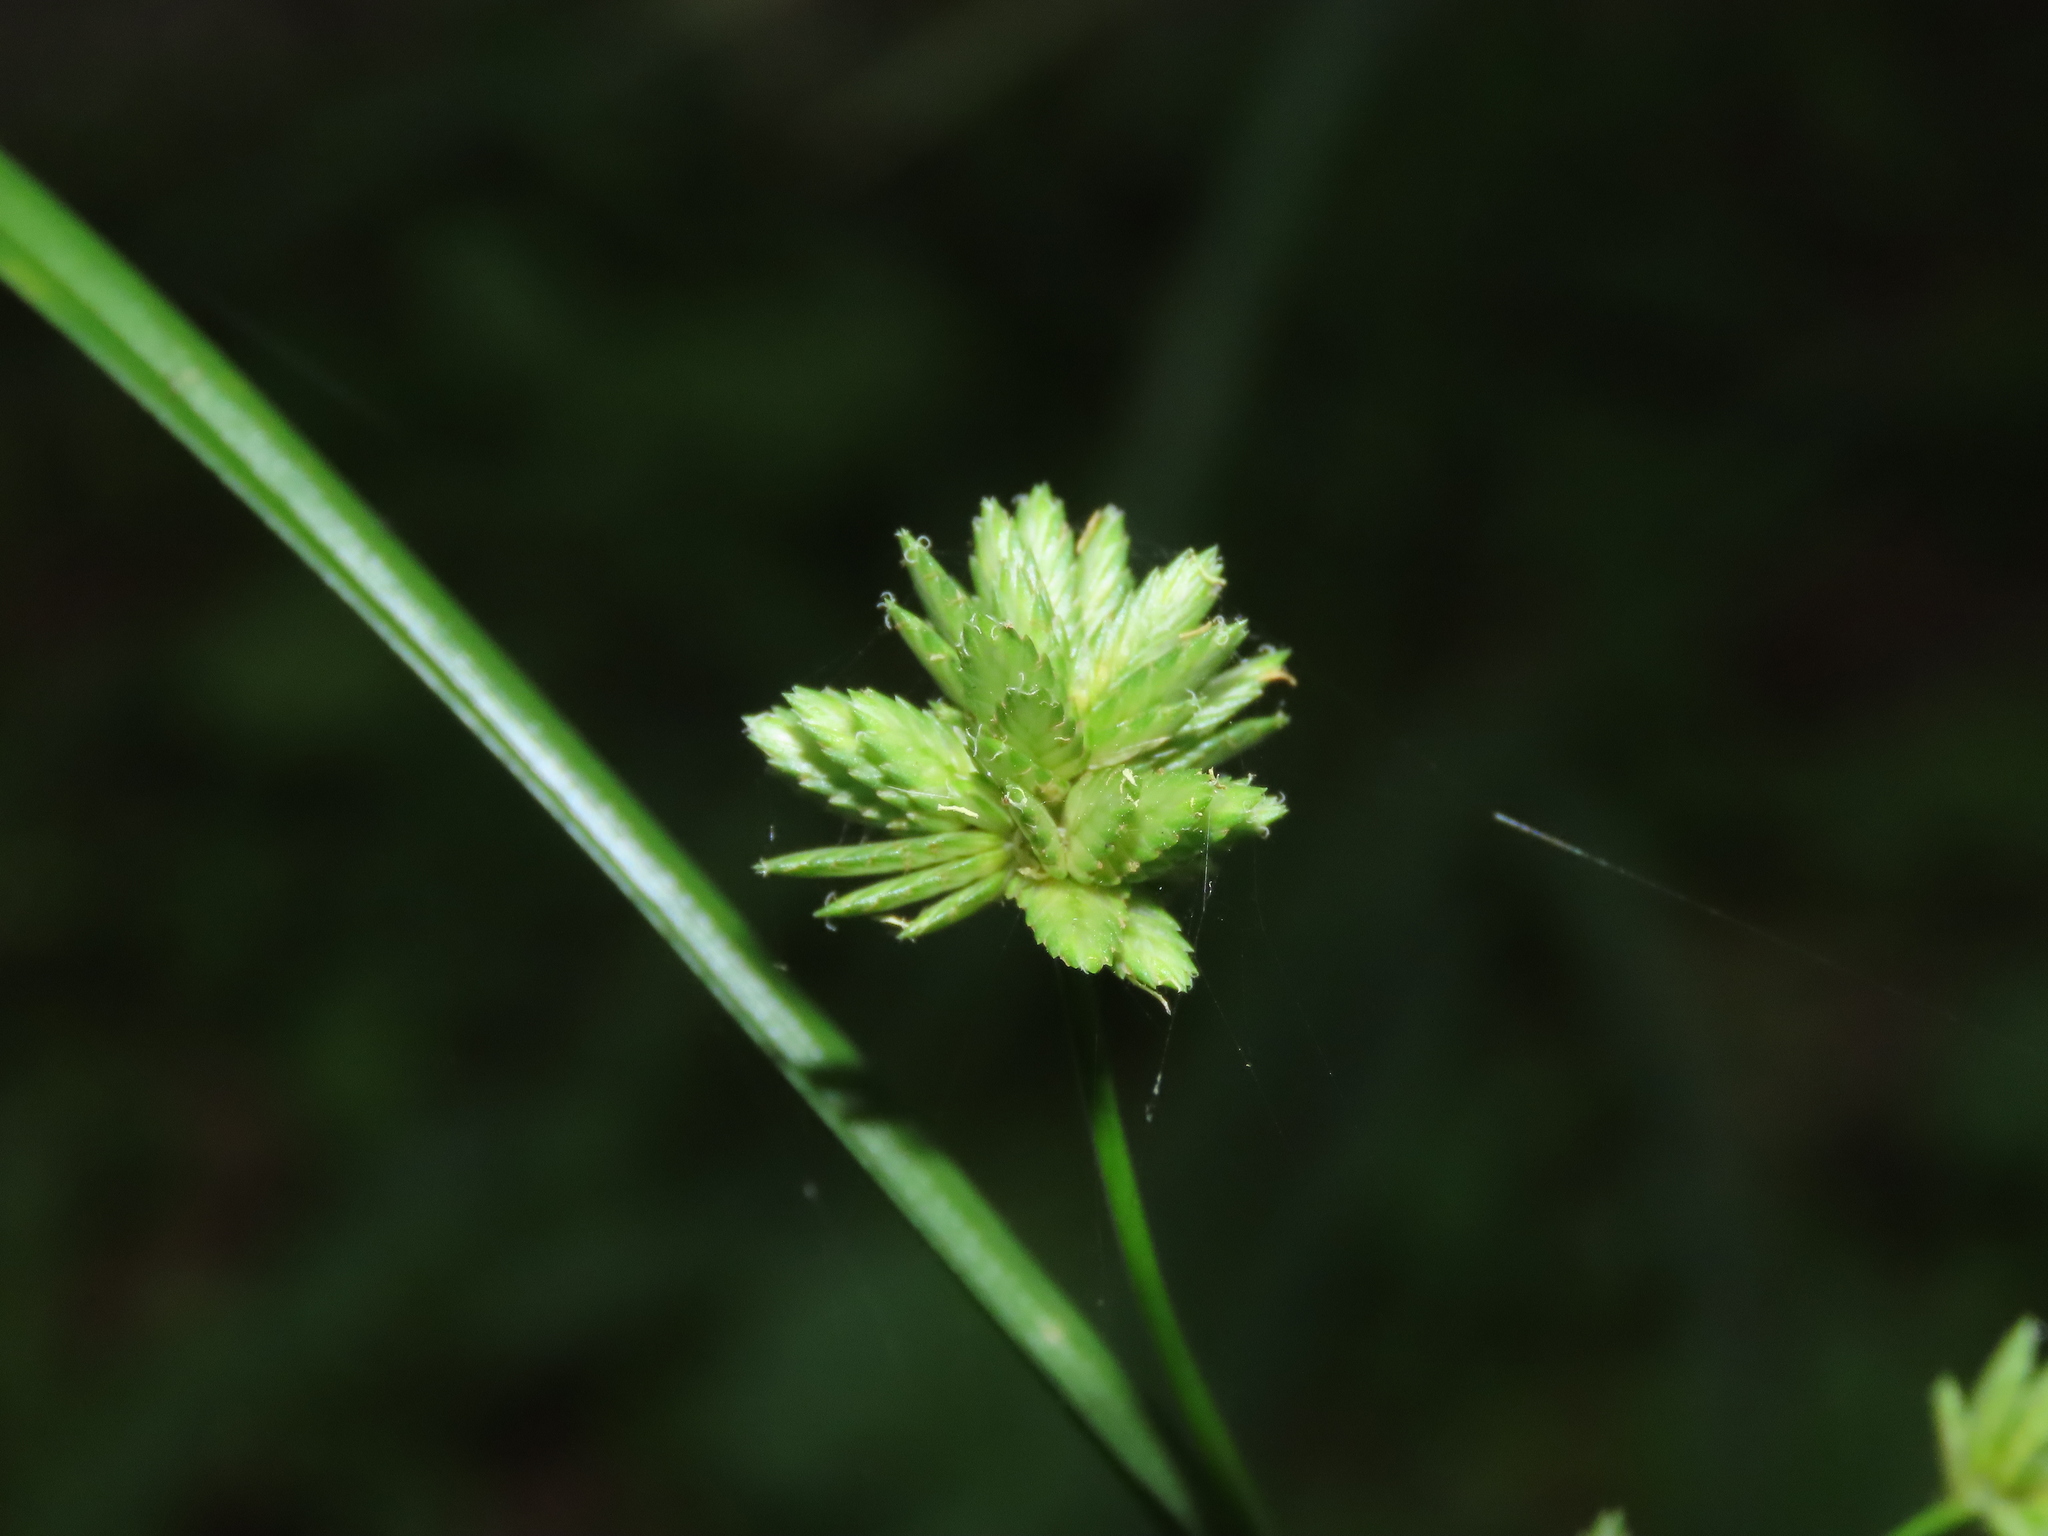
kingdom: Plantae
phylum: Tracheophyta
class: Liliopsida
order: Poales
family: Cyperaceae
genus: Cyperus
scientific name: Cyperus eragrostis
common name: Tall flatsedge
